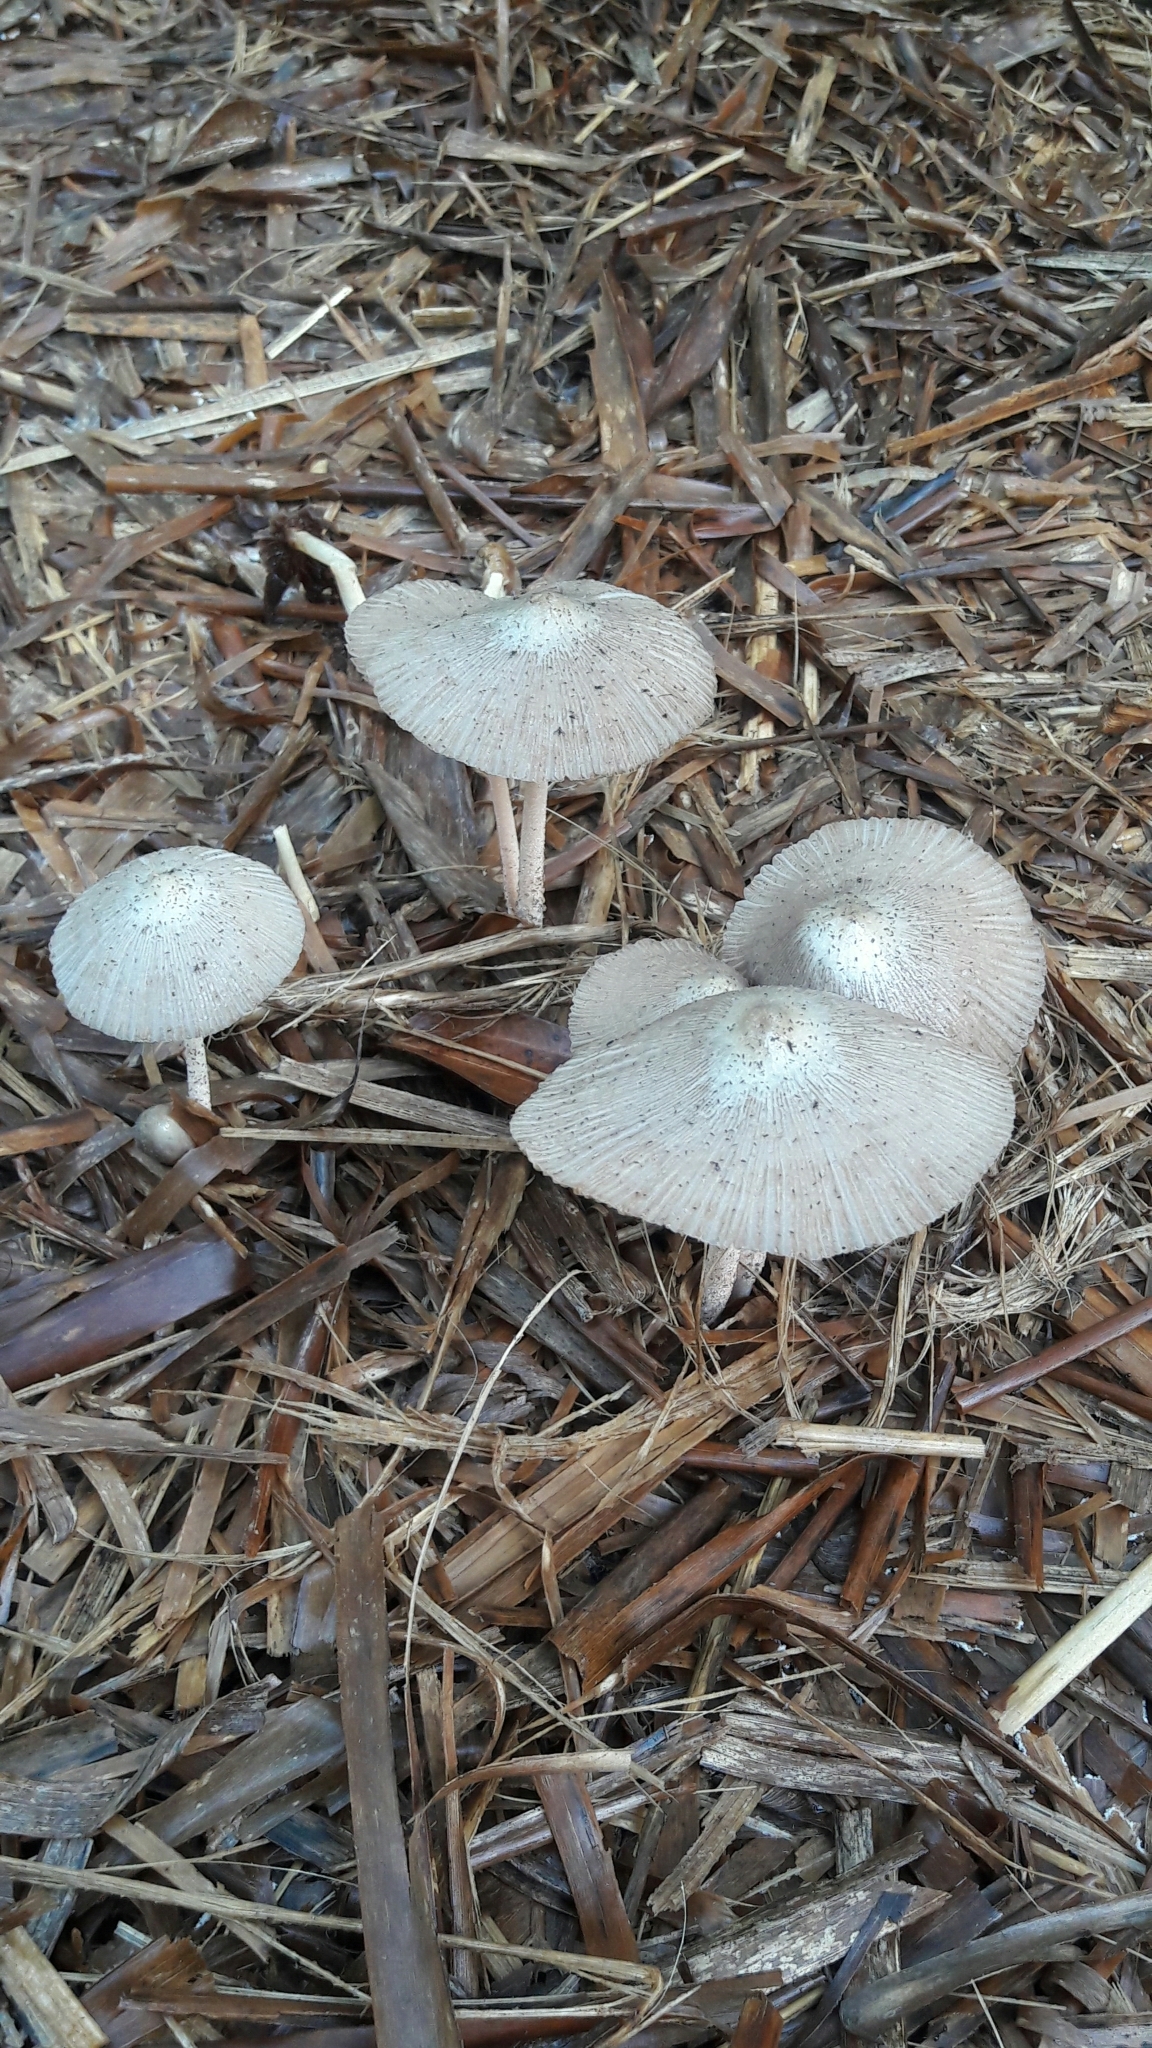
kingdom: Fungi
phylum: Basidiomycota
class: Agaricomycetes
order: Agaricales
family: Bolbitiaceae
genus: Bolbitius
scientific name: Bolbitius coprophilus
